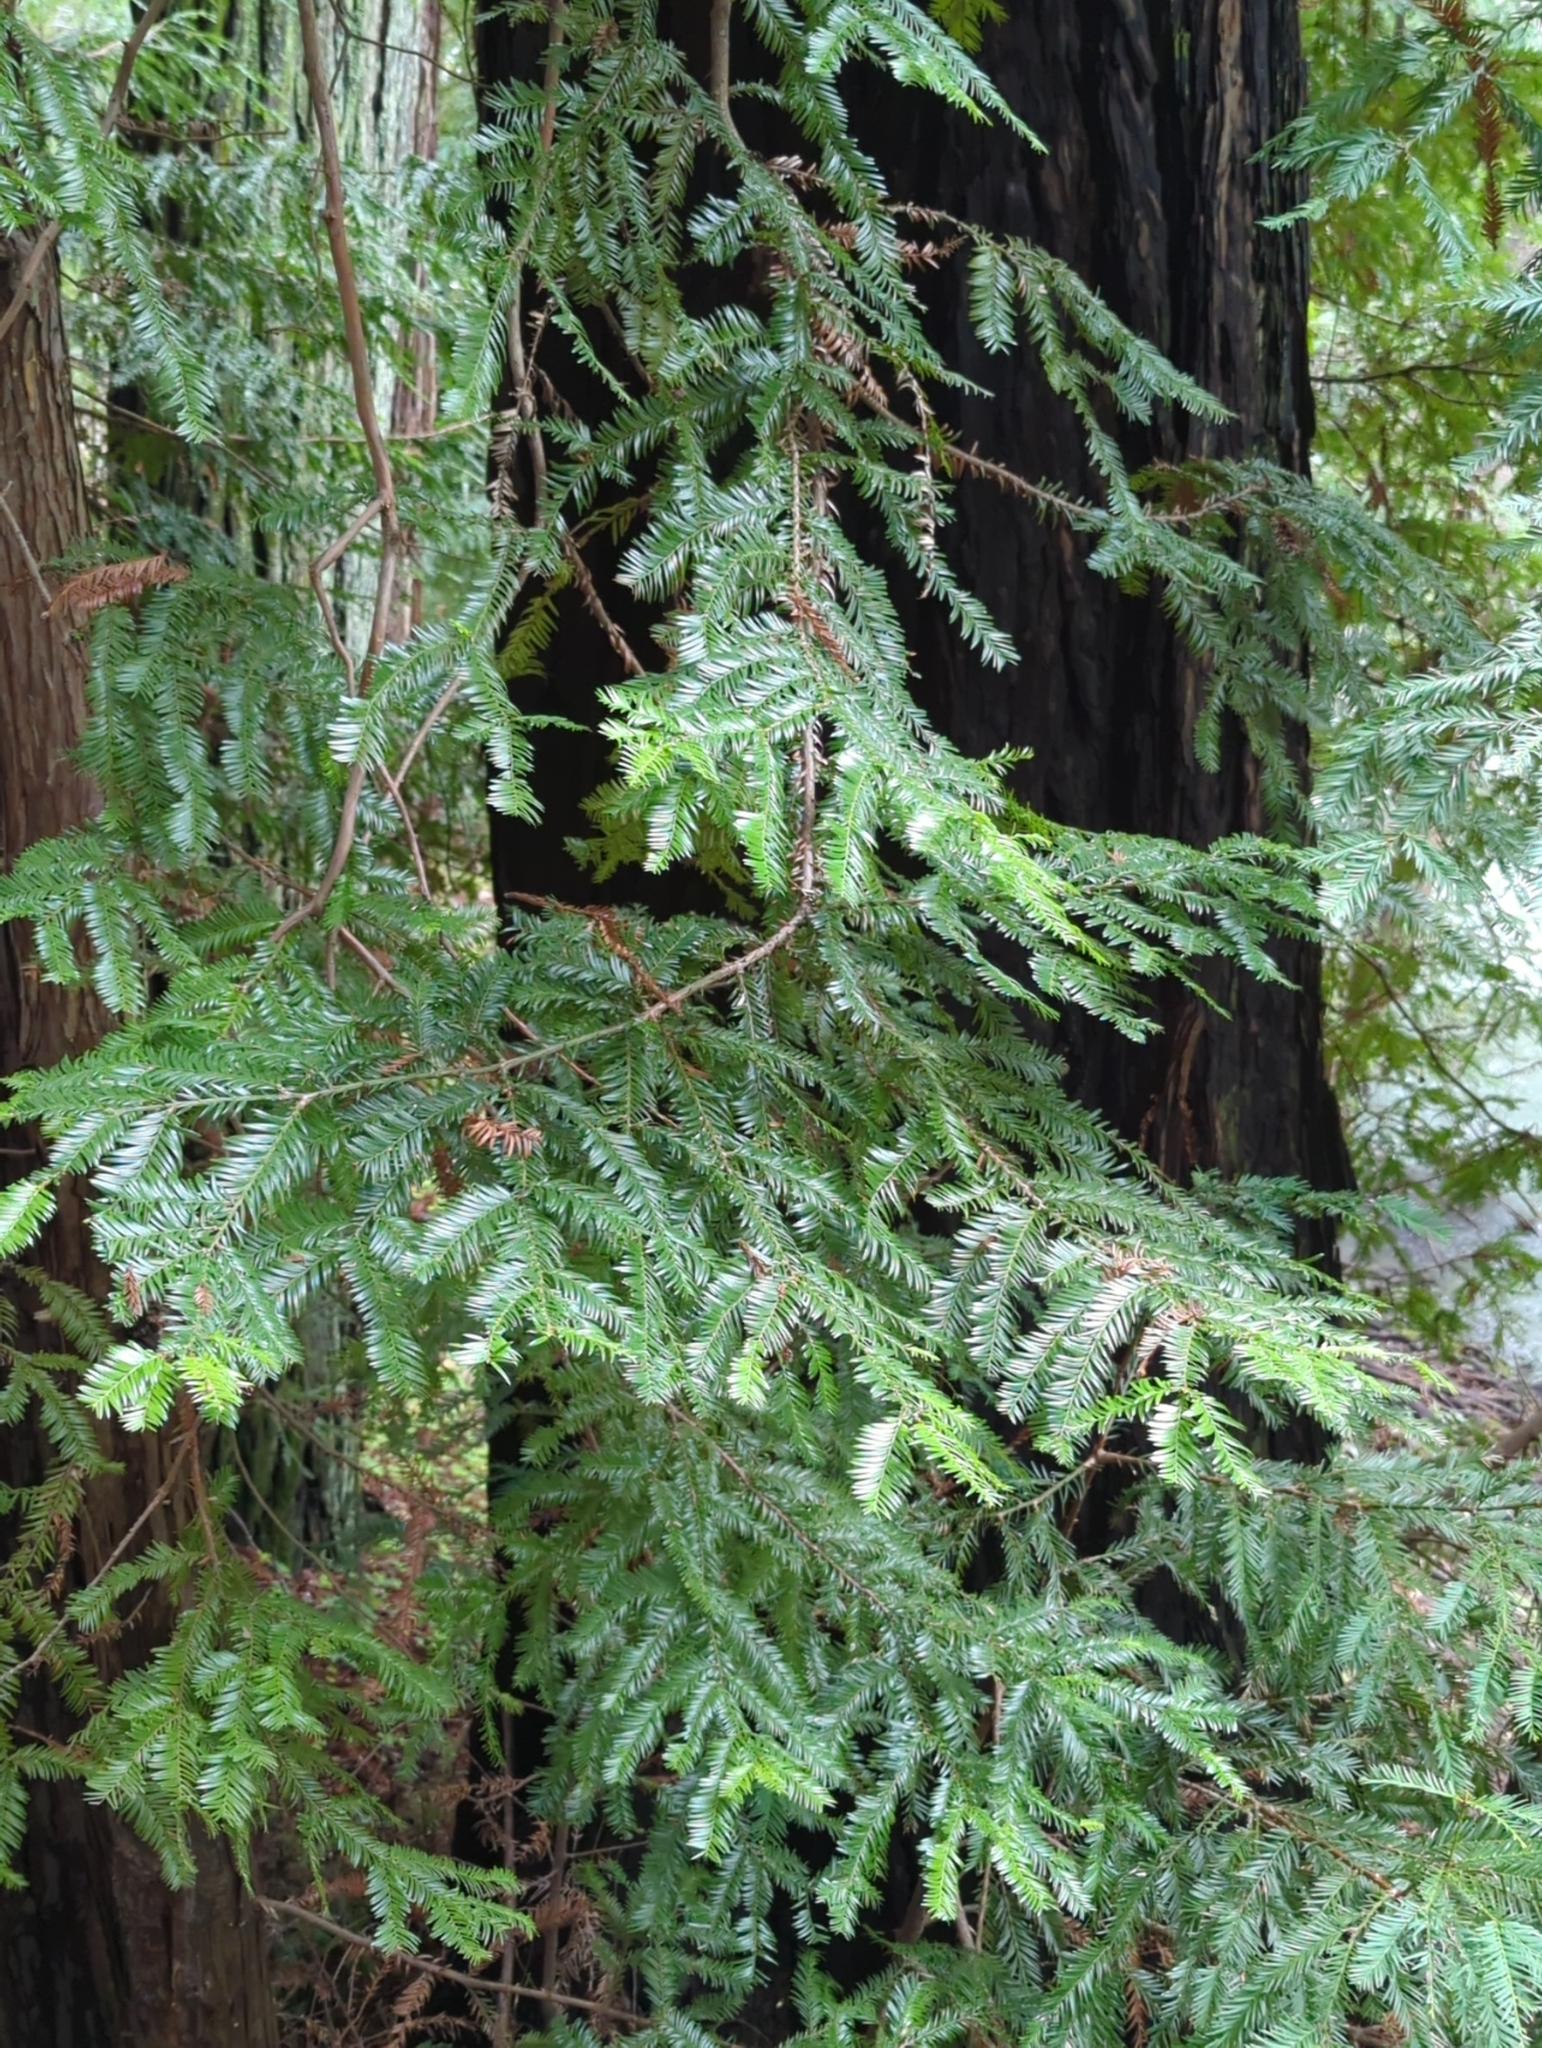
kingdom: Plantae
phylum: Tracheophyta
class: Pinopsida
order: Pinales
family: Cupressaceae
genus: Sequoia
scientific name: Sequoia sempervirens
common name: Coast redwood
